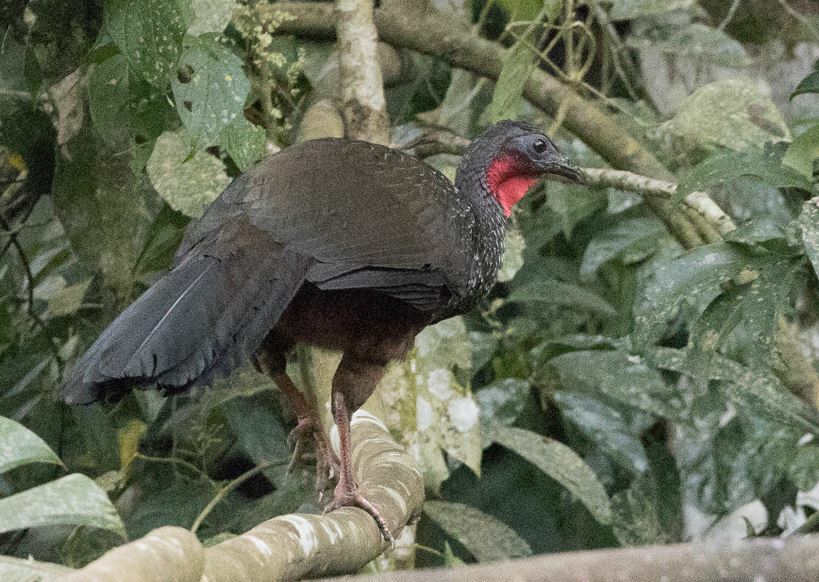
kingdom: Animalia
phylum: Chordata
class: Aves
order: Galliformes
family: Cracidae
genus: Penelope
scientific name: Penelope jacquacu
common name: Spix's guan
